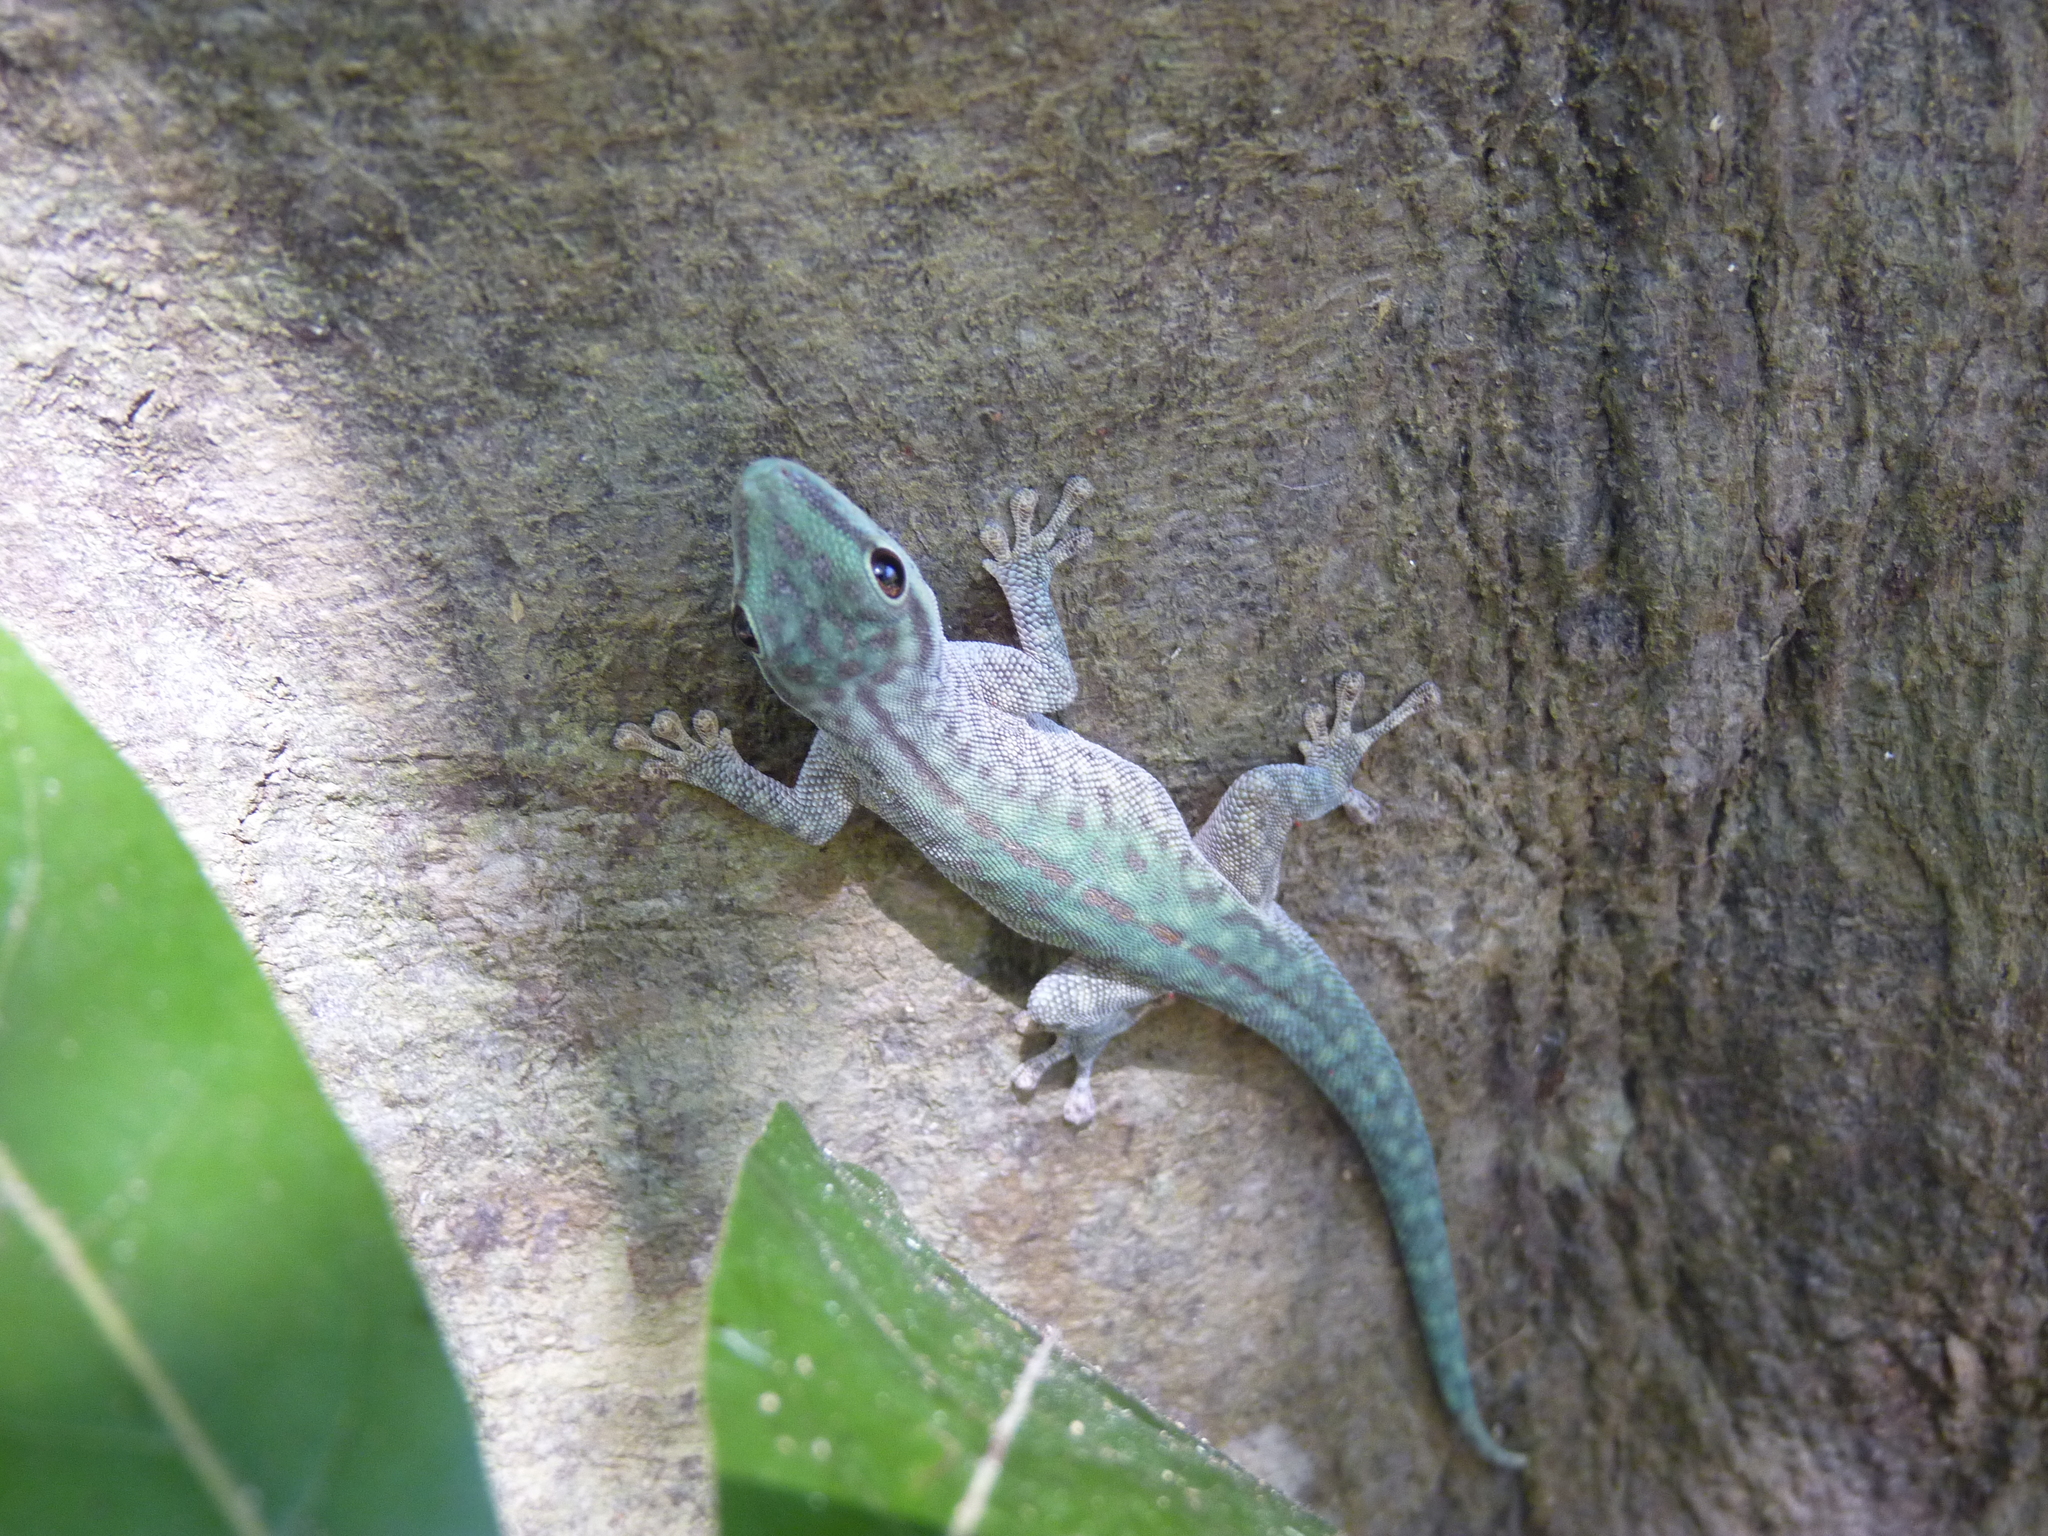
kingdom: Animalia
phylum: Chordata
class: Squamata
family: Gekkonidae
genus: Phelsuma
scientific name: Phelsuma abbotti
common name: Aldabra day gecko
